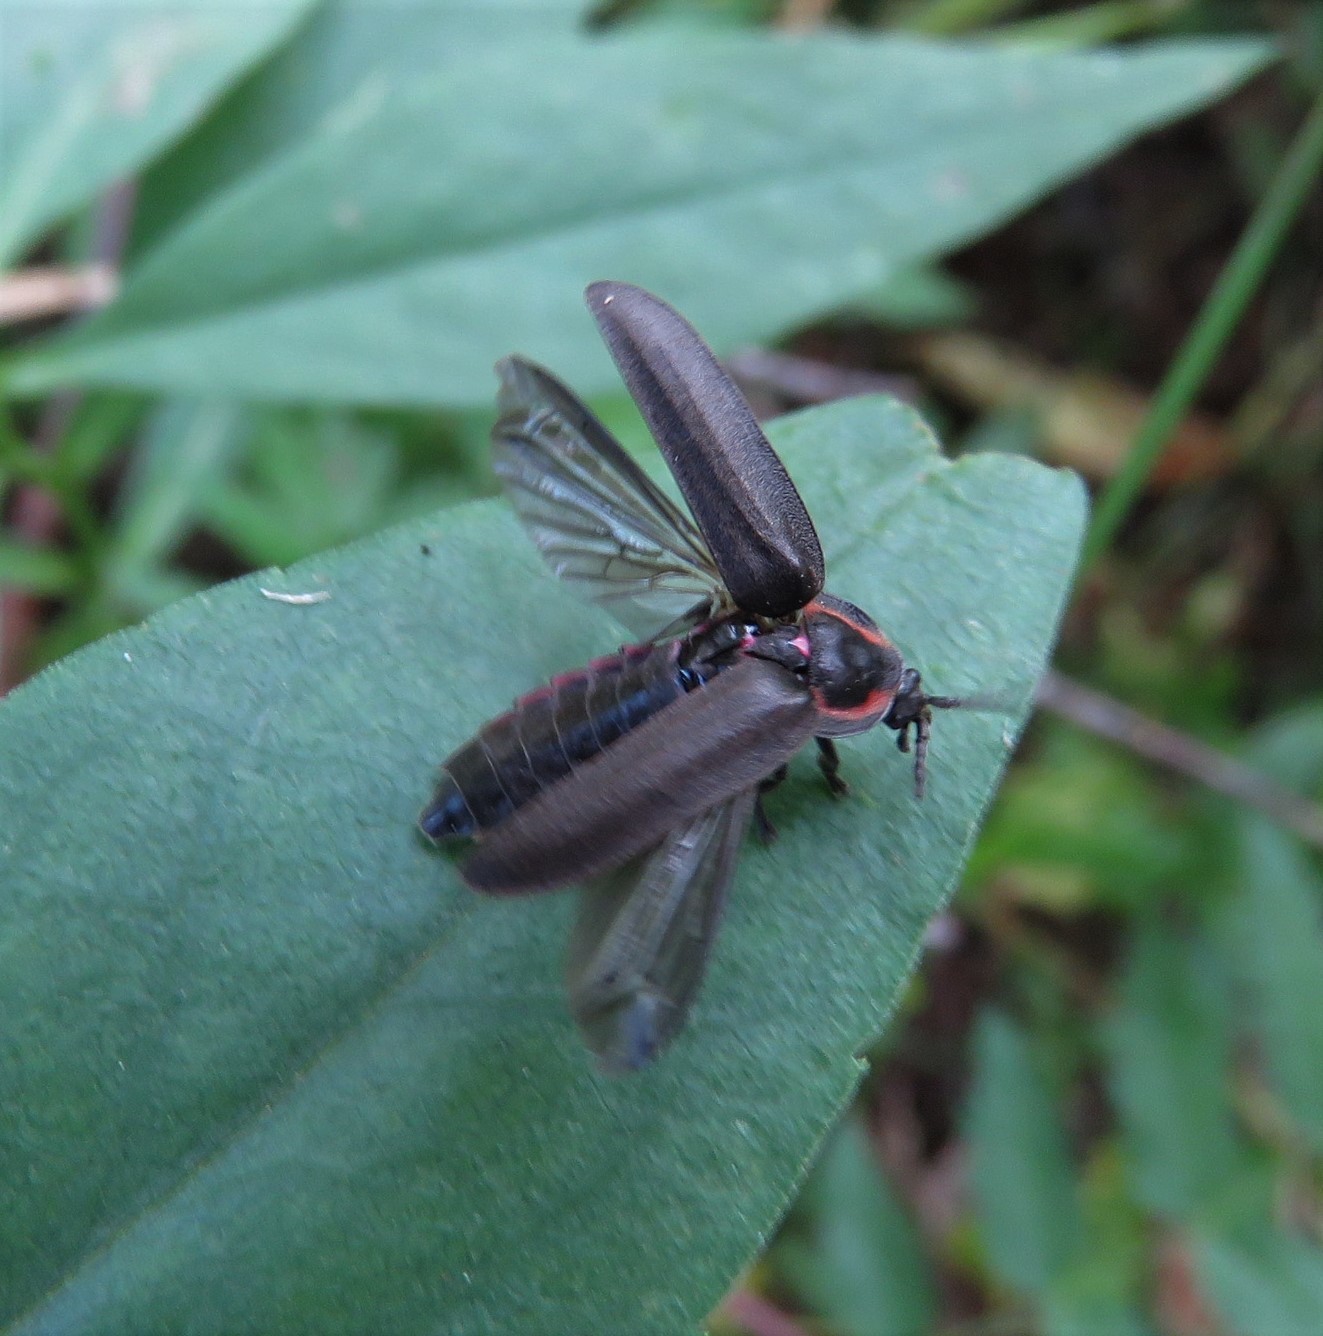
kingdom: Animalia
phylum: Arthropoda
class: Insecta
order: Coleoptera
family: Lampyridae
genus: Photinus
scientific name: Photinus corrusca
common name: Winter firefly
